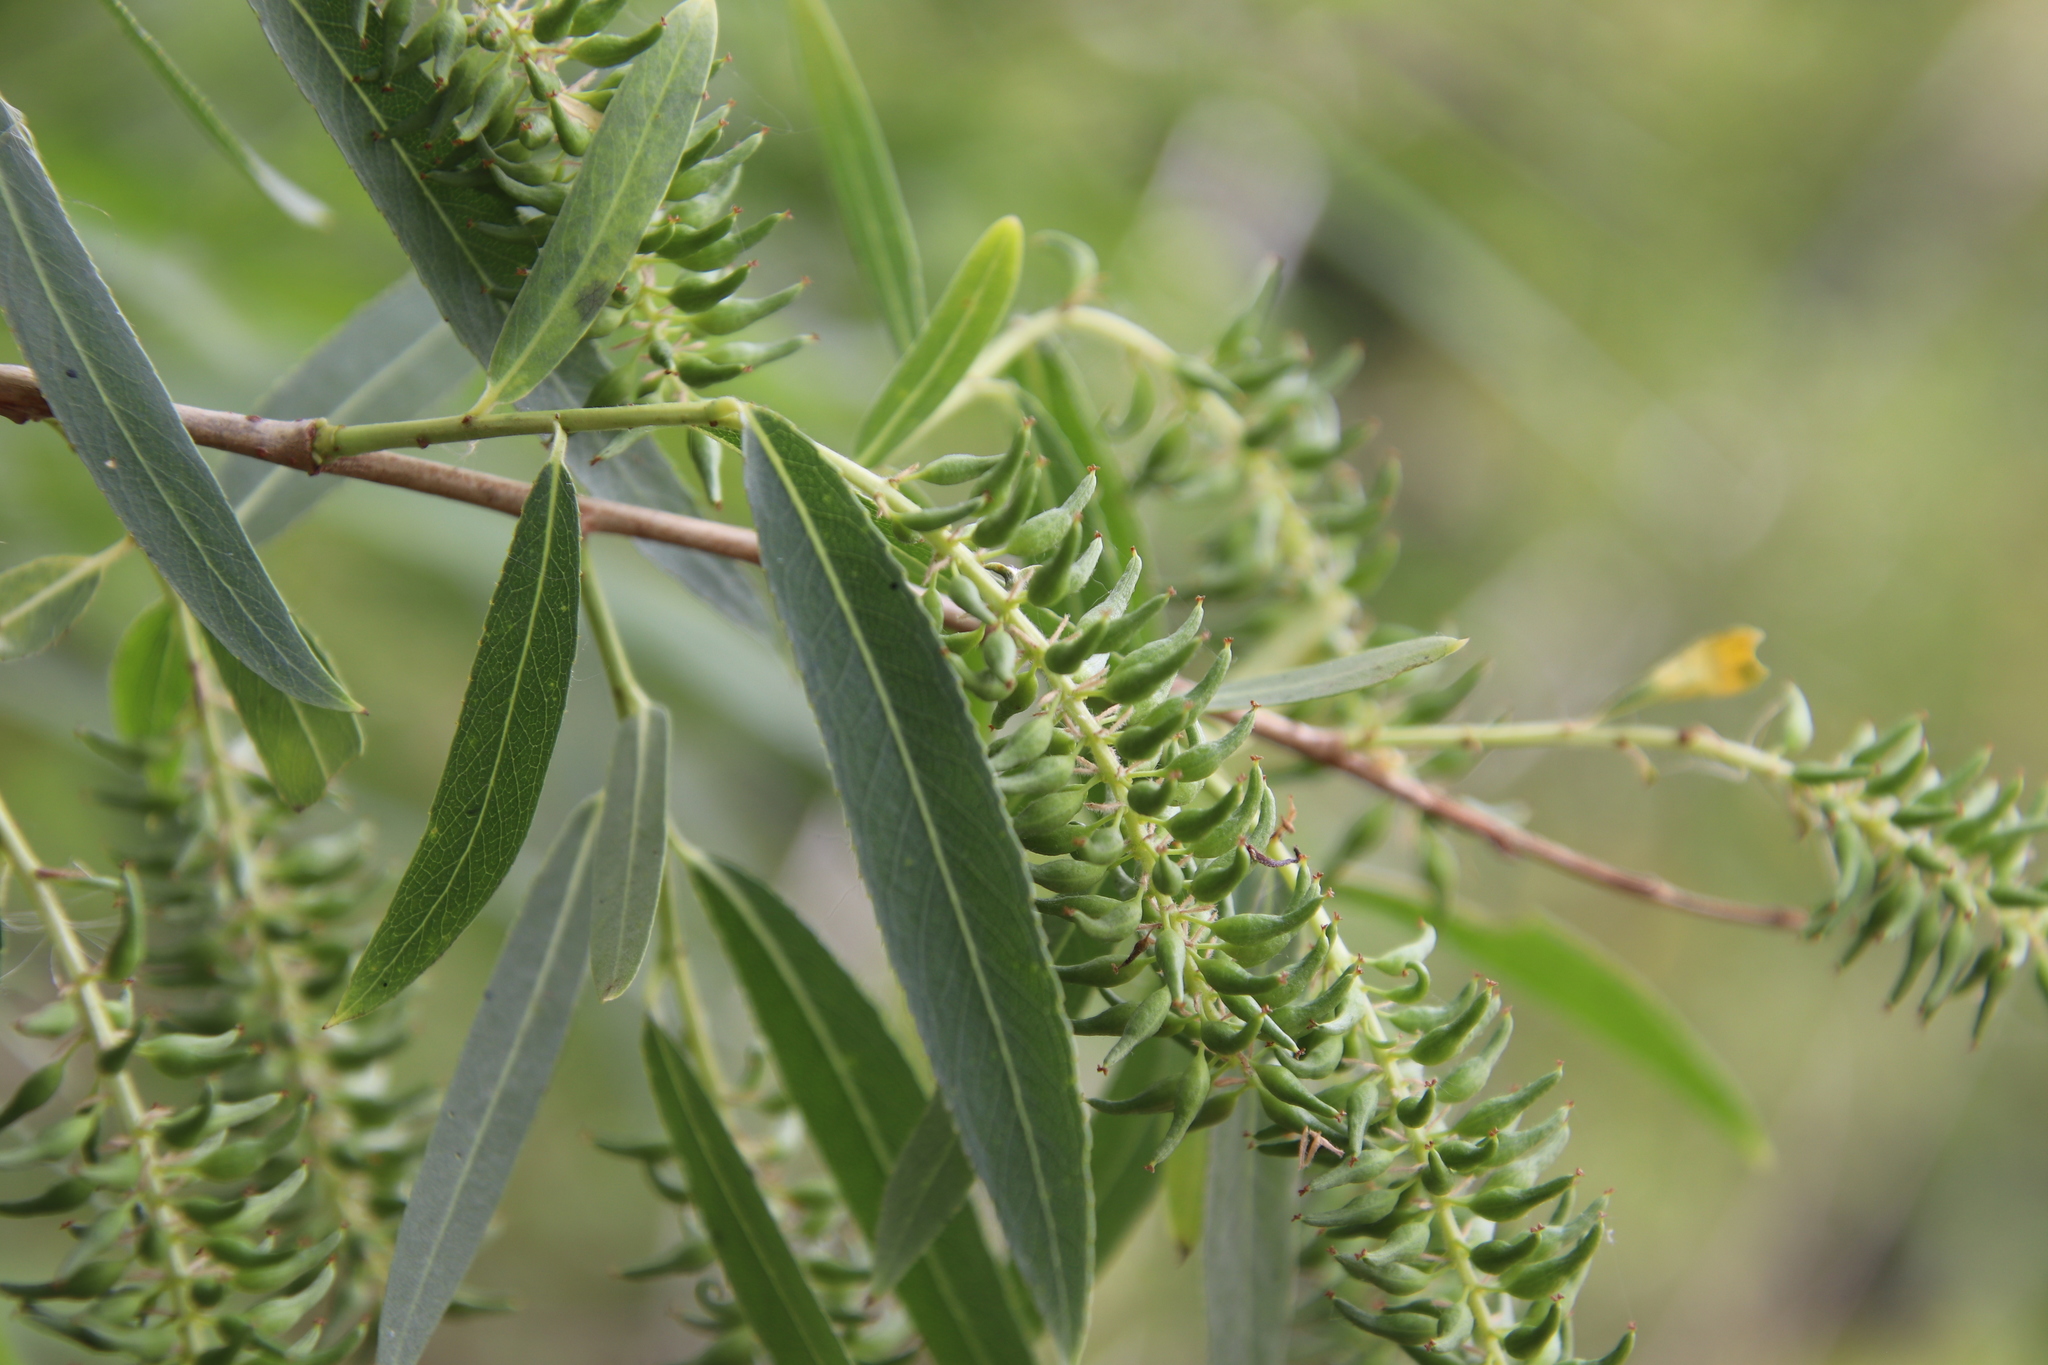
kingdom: Plantae
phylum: Tracheophyta
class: Magnoliopsida
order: Malpighiales
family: Salicaceae
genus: Salix
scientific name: Salix gooddingii
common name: Goodding's willow
